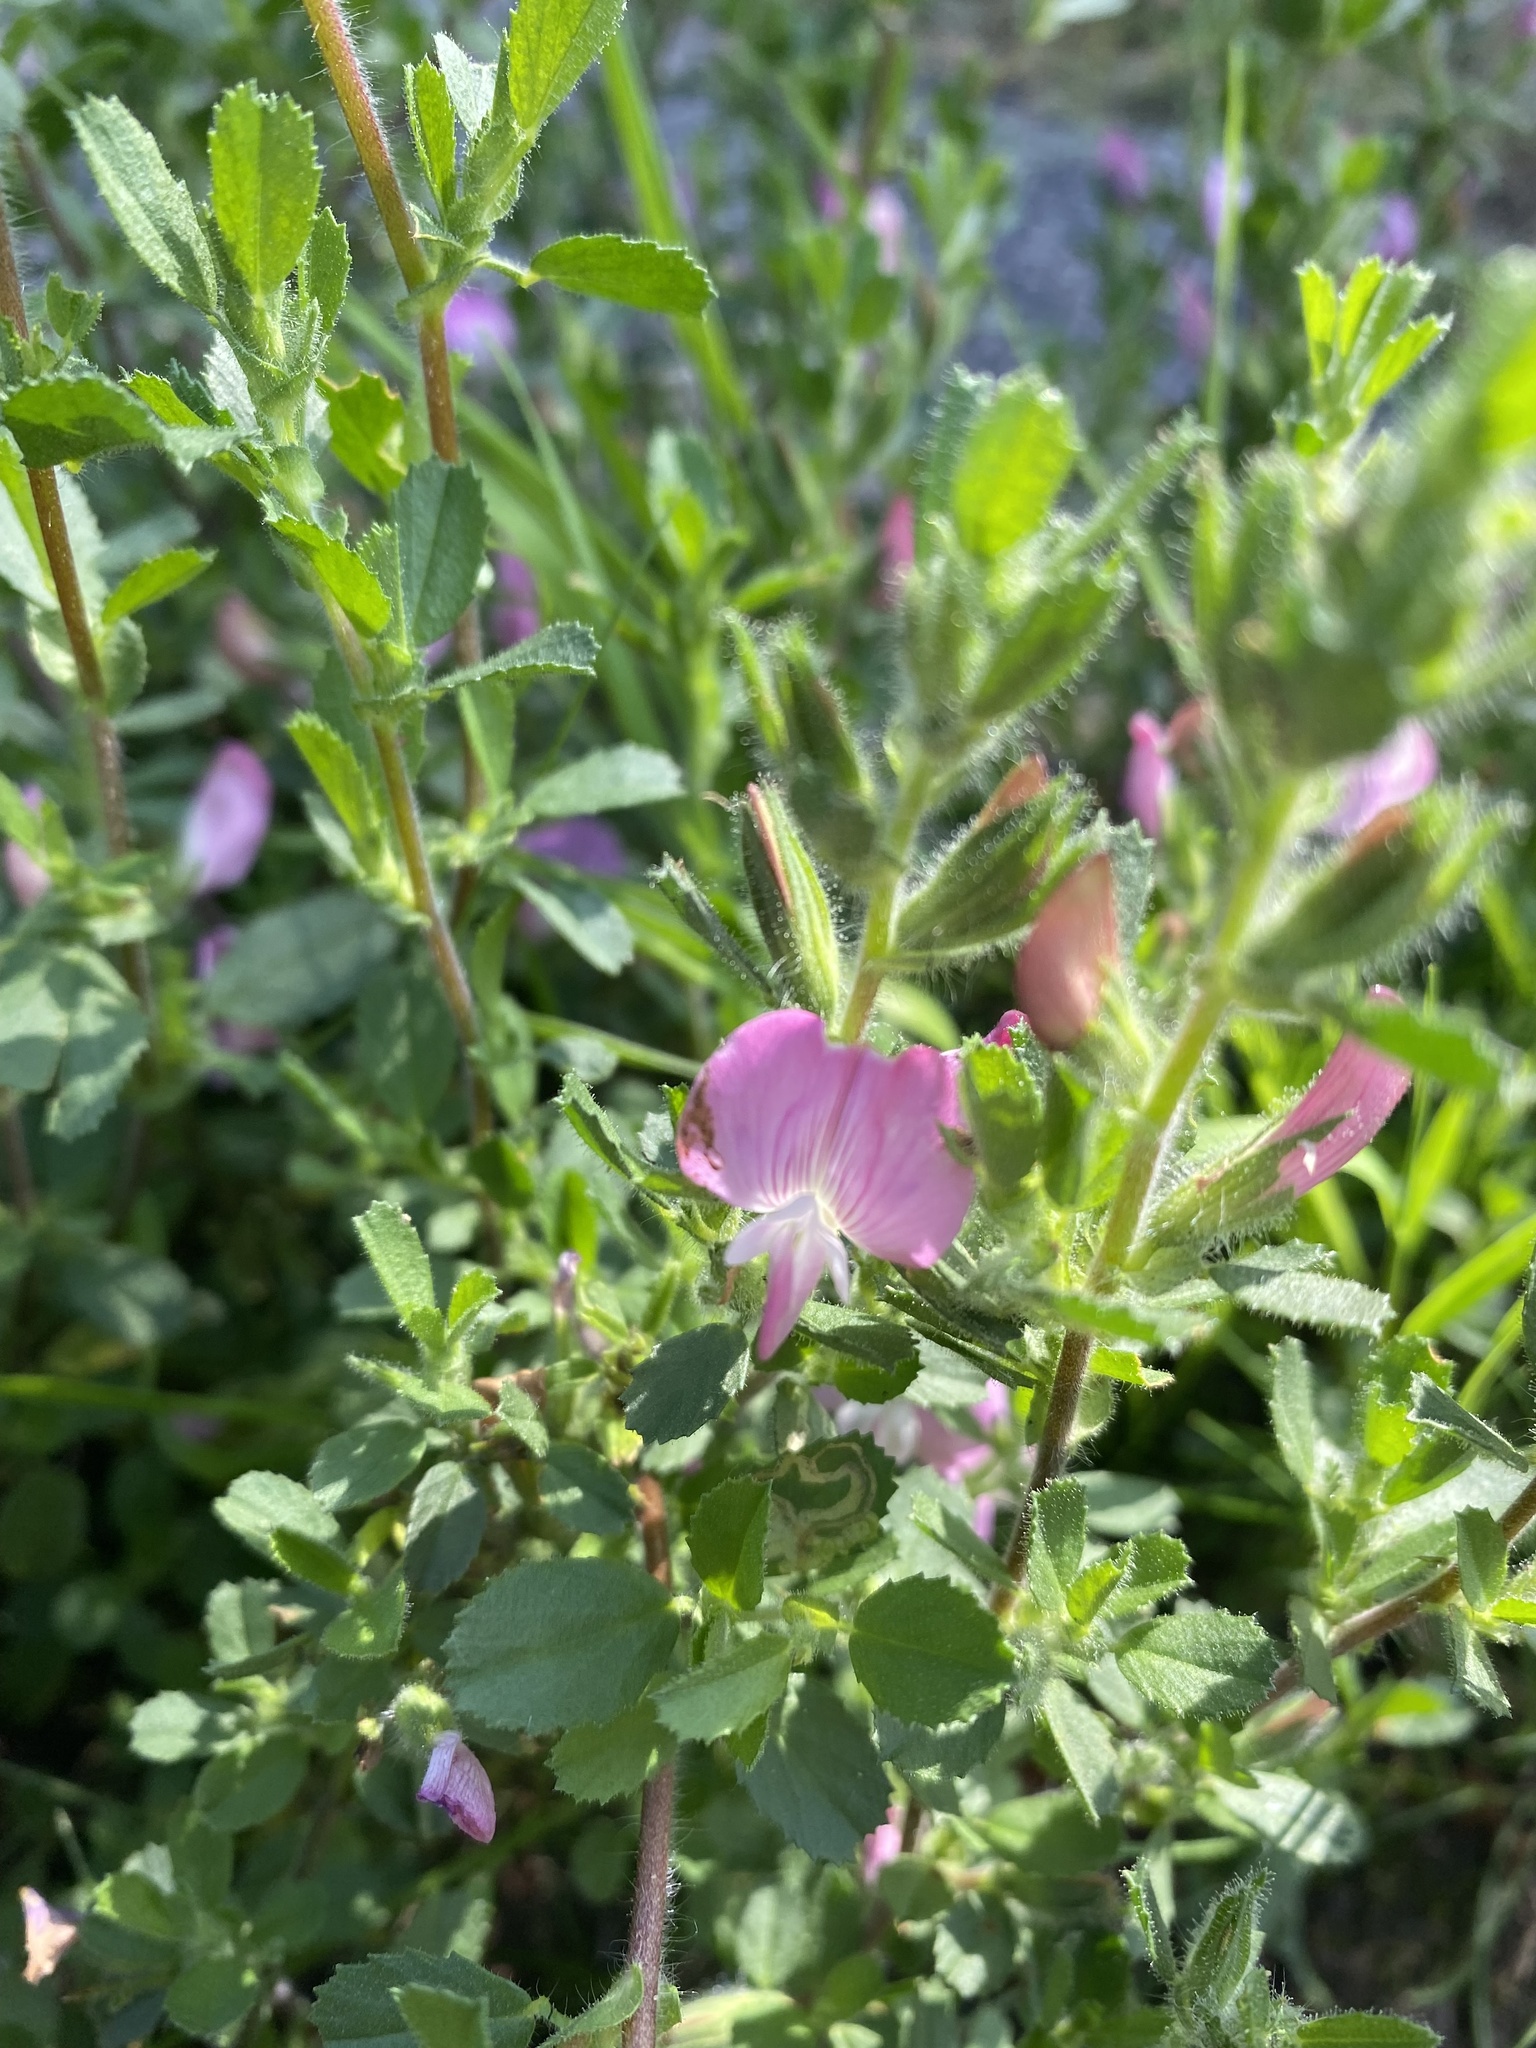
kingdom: Plantae
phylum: Tracheophyta
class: Magnoliopsida
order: Fabales
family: Fabaceae
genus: Ononis
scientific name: Ononis spinosa
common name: Spiny restharrow
